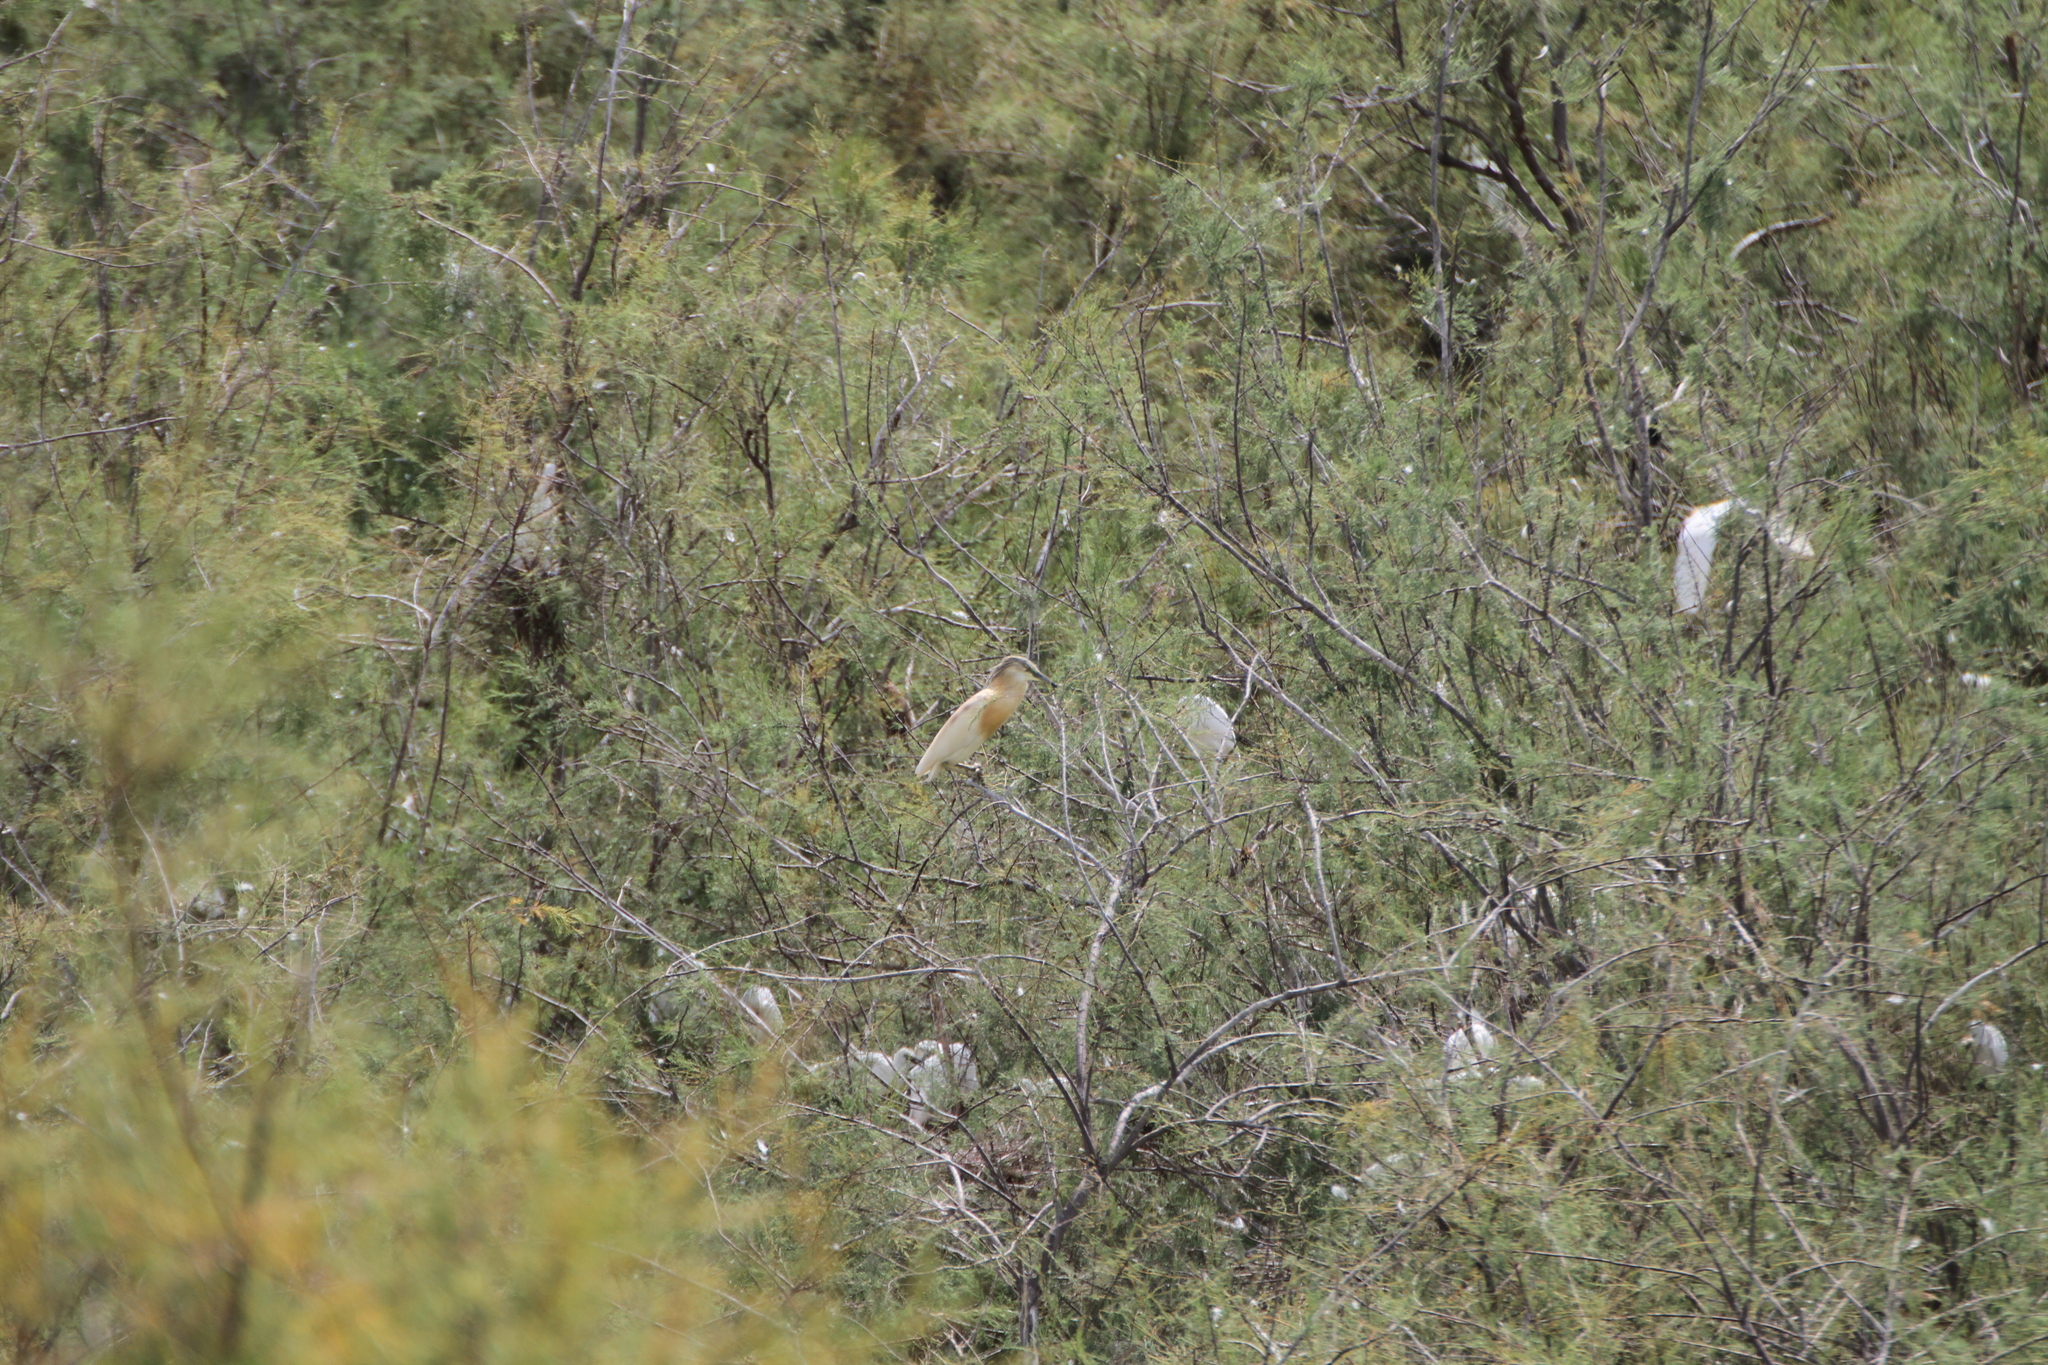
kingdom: Animalia
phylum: Chordata
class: Aves
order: Pelecaniformes
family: Ardeidae
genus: Ardeola
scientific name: Ardeola ralloides
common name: Squacco heron
